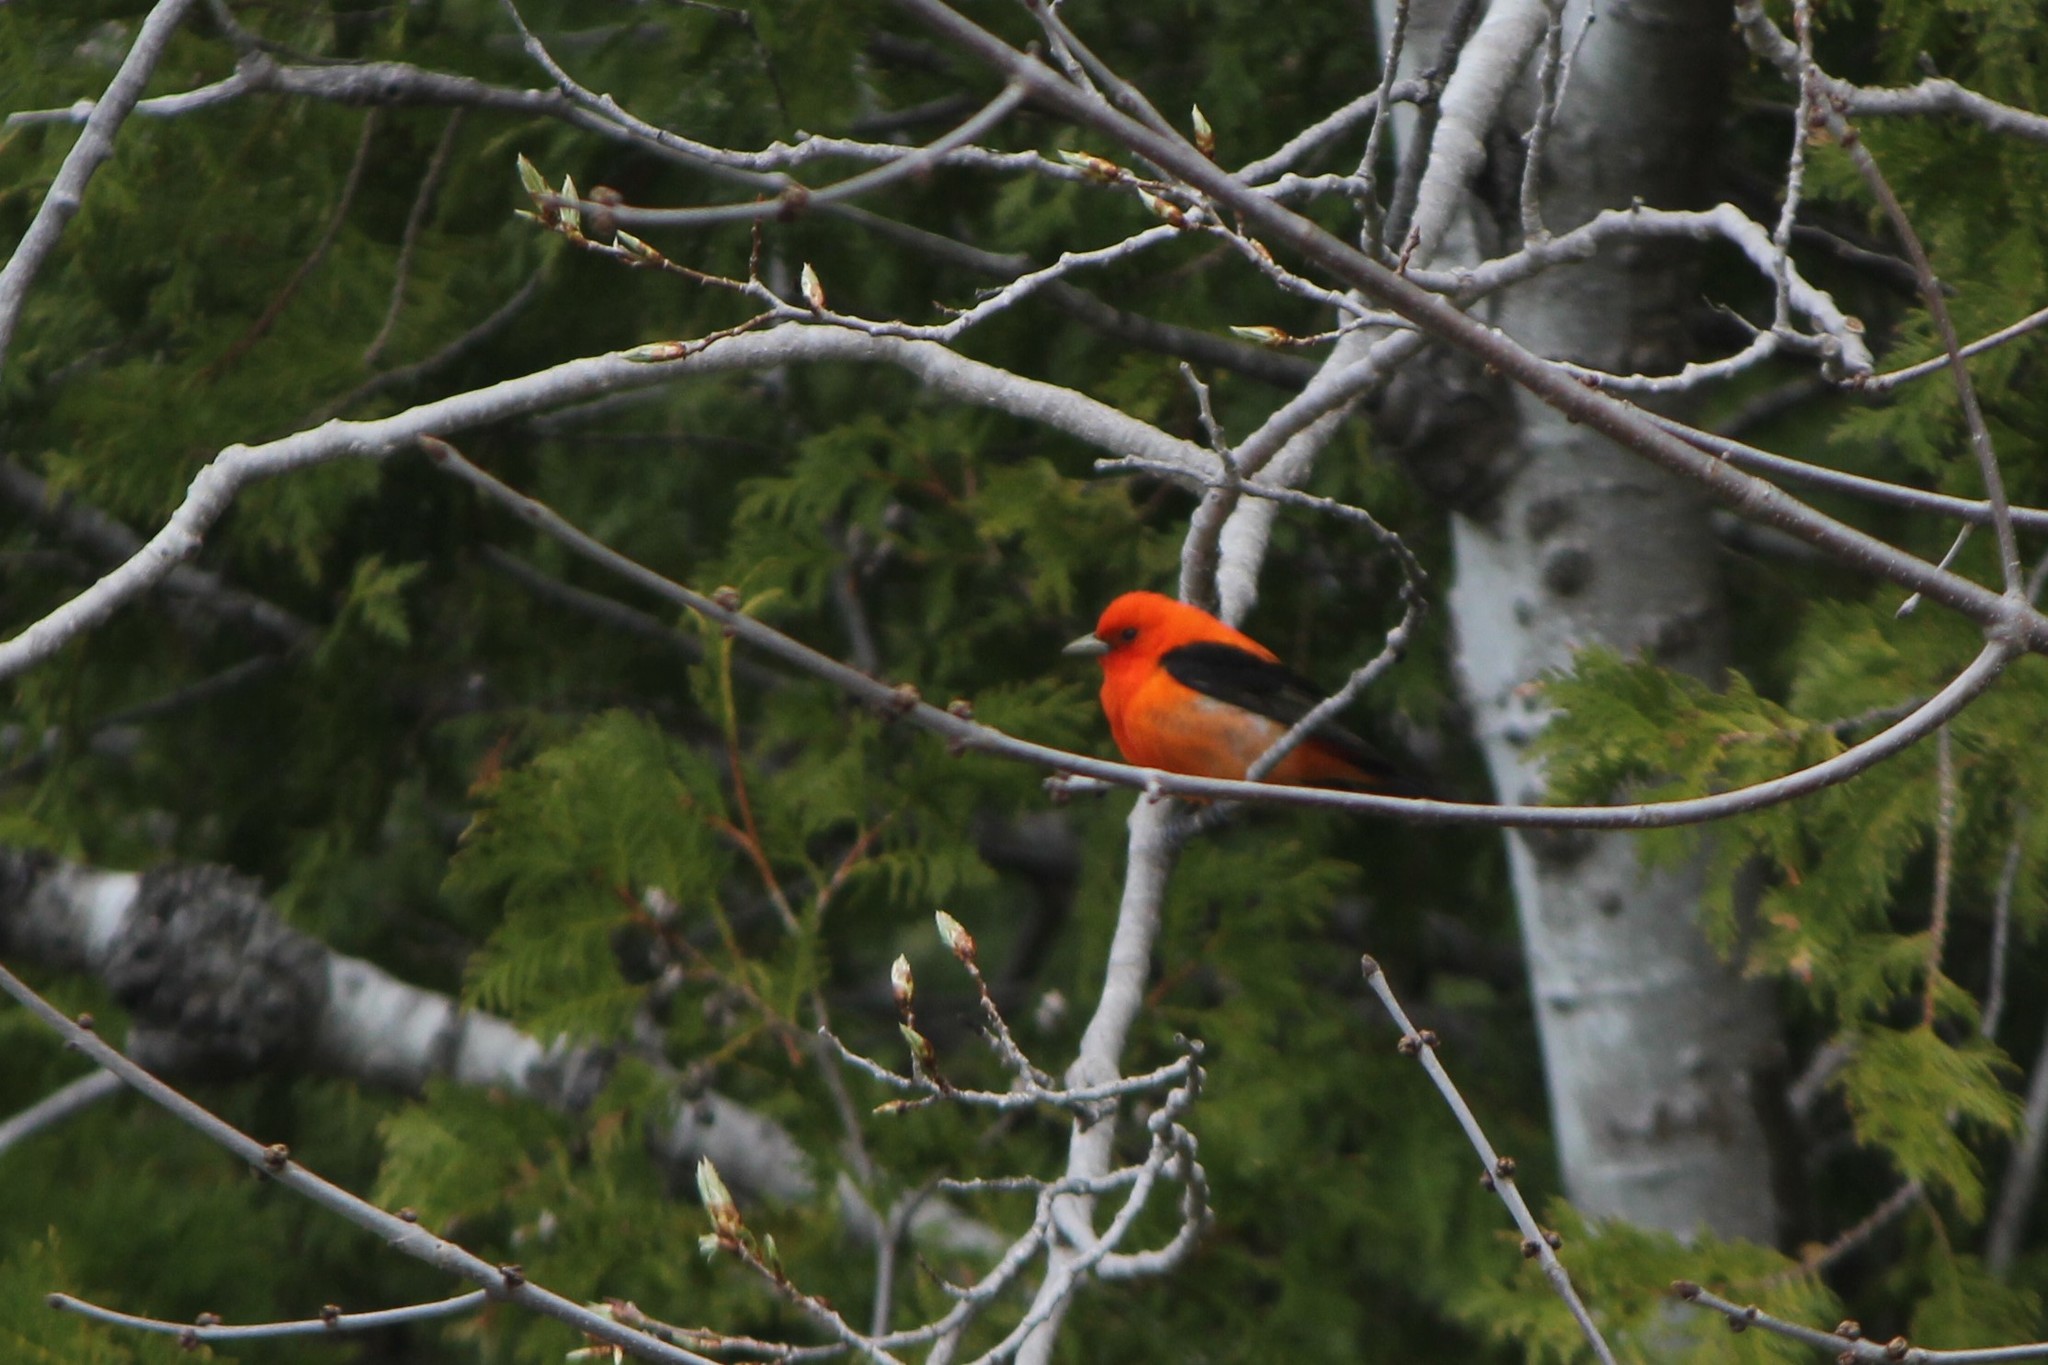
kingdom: Animalia
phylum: Chordata
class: Aves
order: Passeriformes
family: Cardinalidae
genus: Piranga
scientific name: Piranga olivacea
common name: Scarlet tanager
